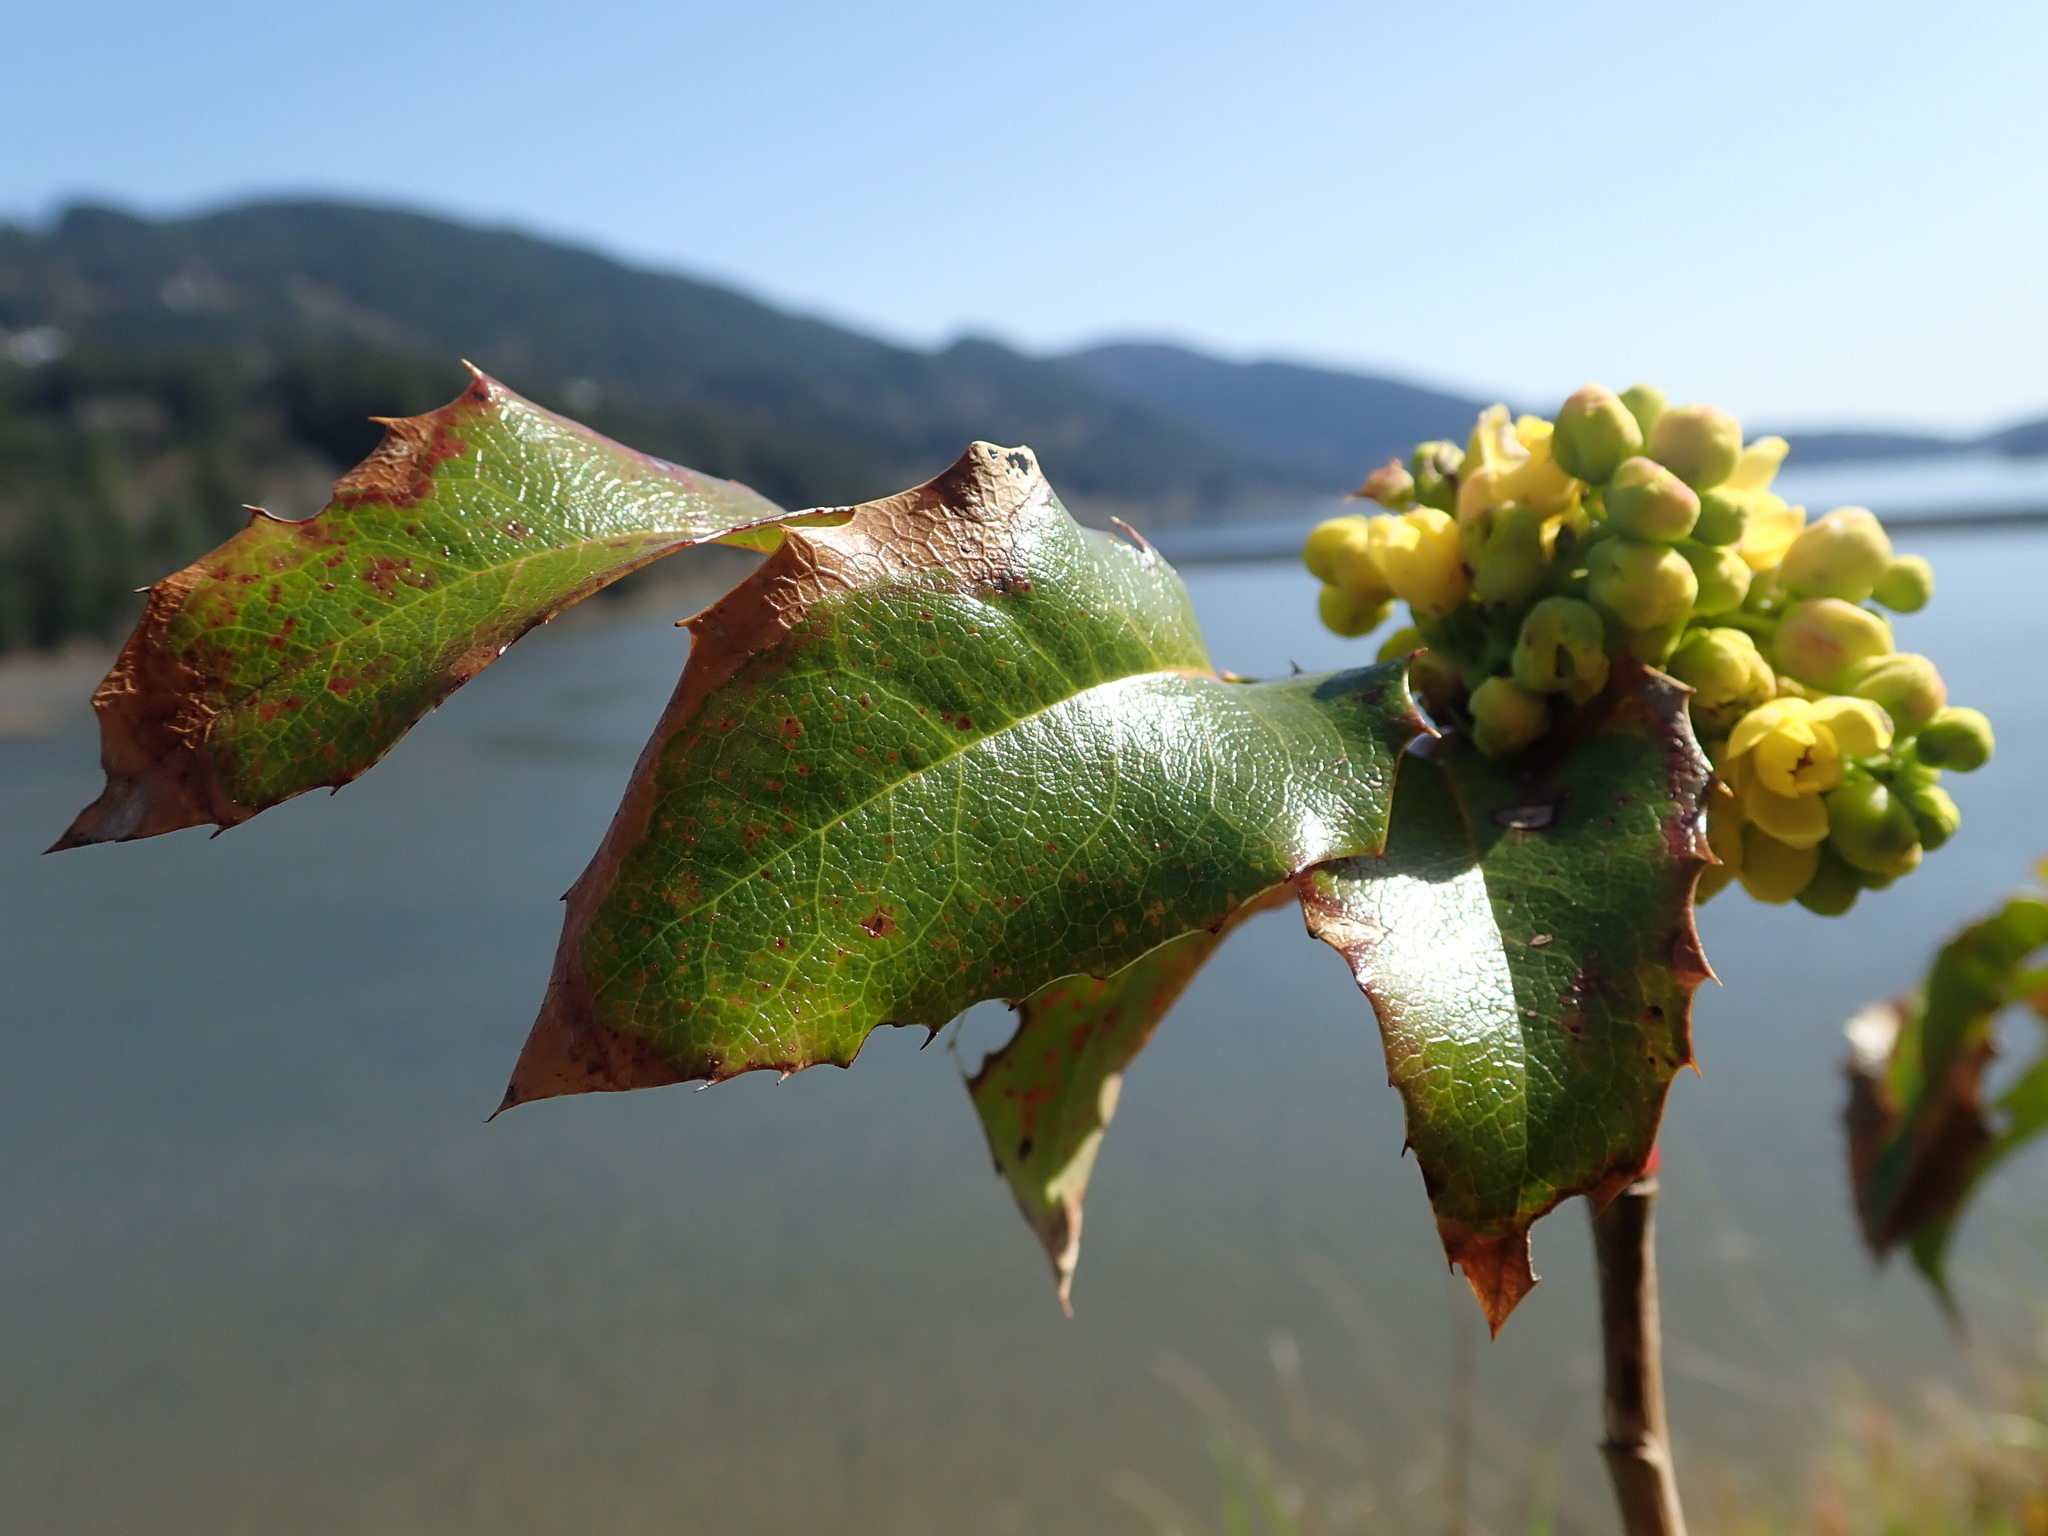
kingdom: Plantae
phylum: Tracheophyta
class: Magnoliopsida
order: Ranunculales
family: Berberidaceae
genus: Mahonia
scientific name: Mahonia aquifolium
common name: Oregon-grape
